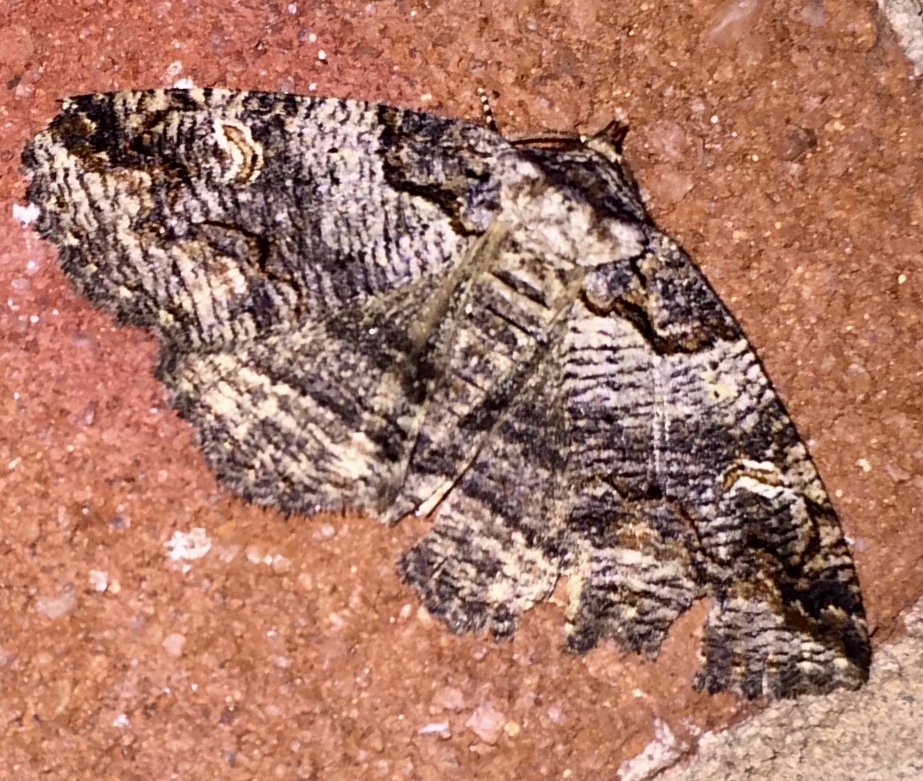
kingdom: Animalia
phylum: Arthropoda
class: Insecta
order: Lepidoptera
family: Erebidae
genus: Zale
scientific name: Zale intenta
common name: Intent zale moth
